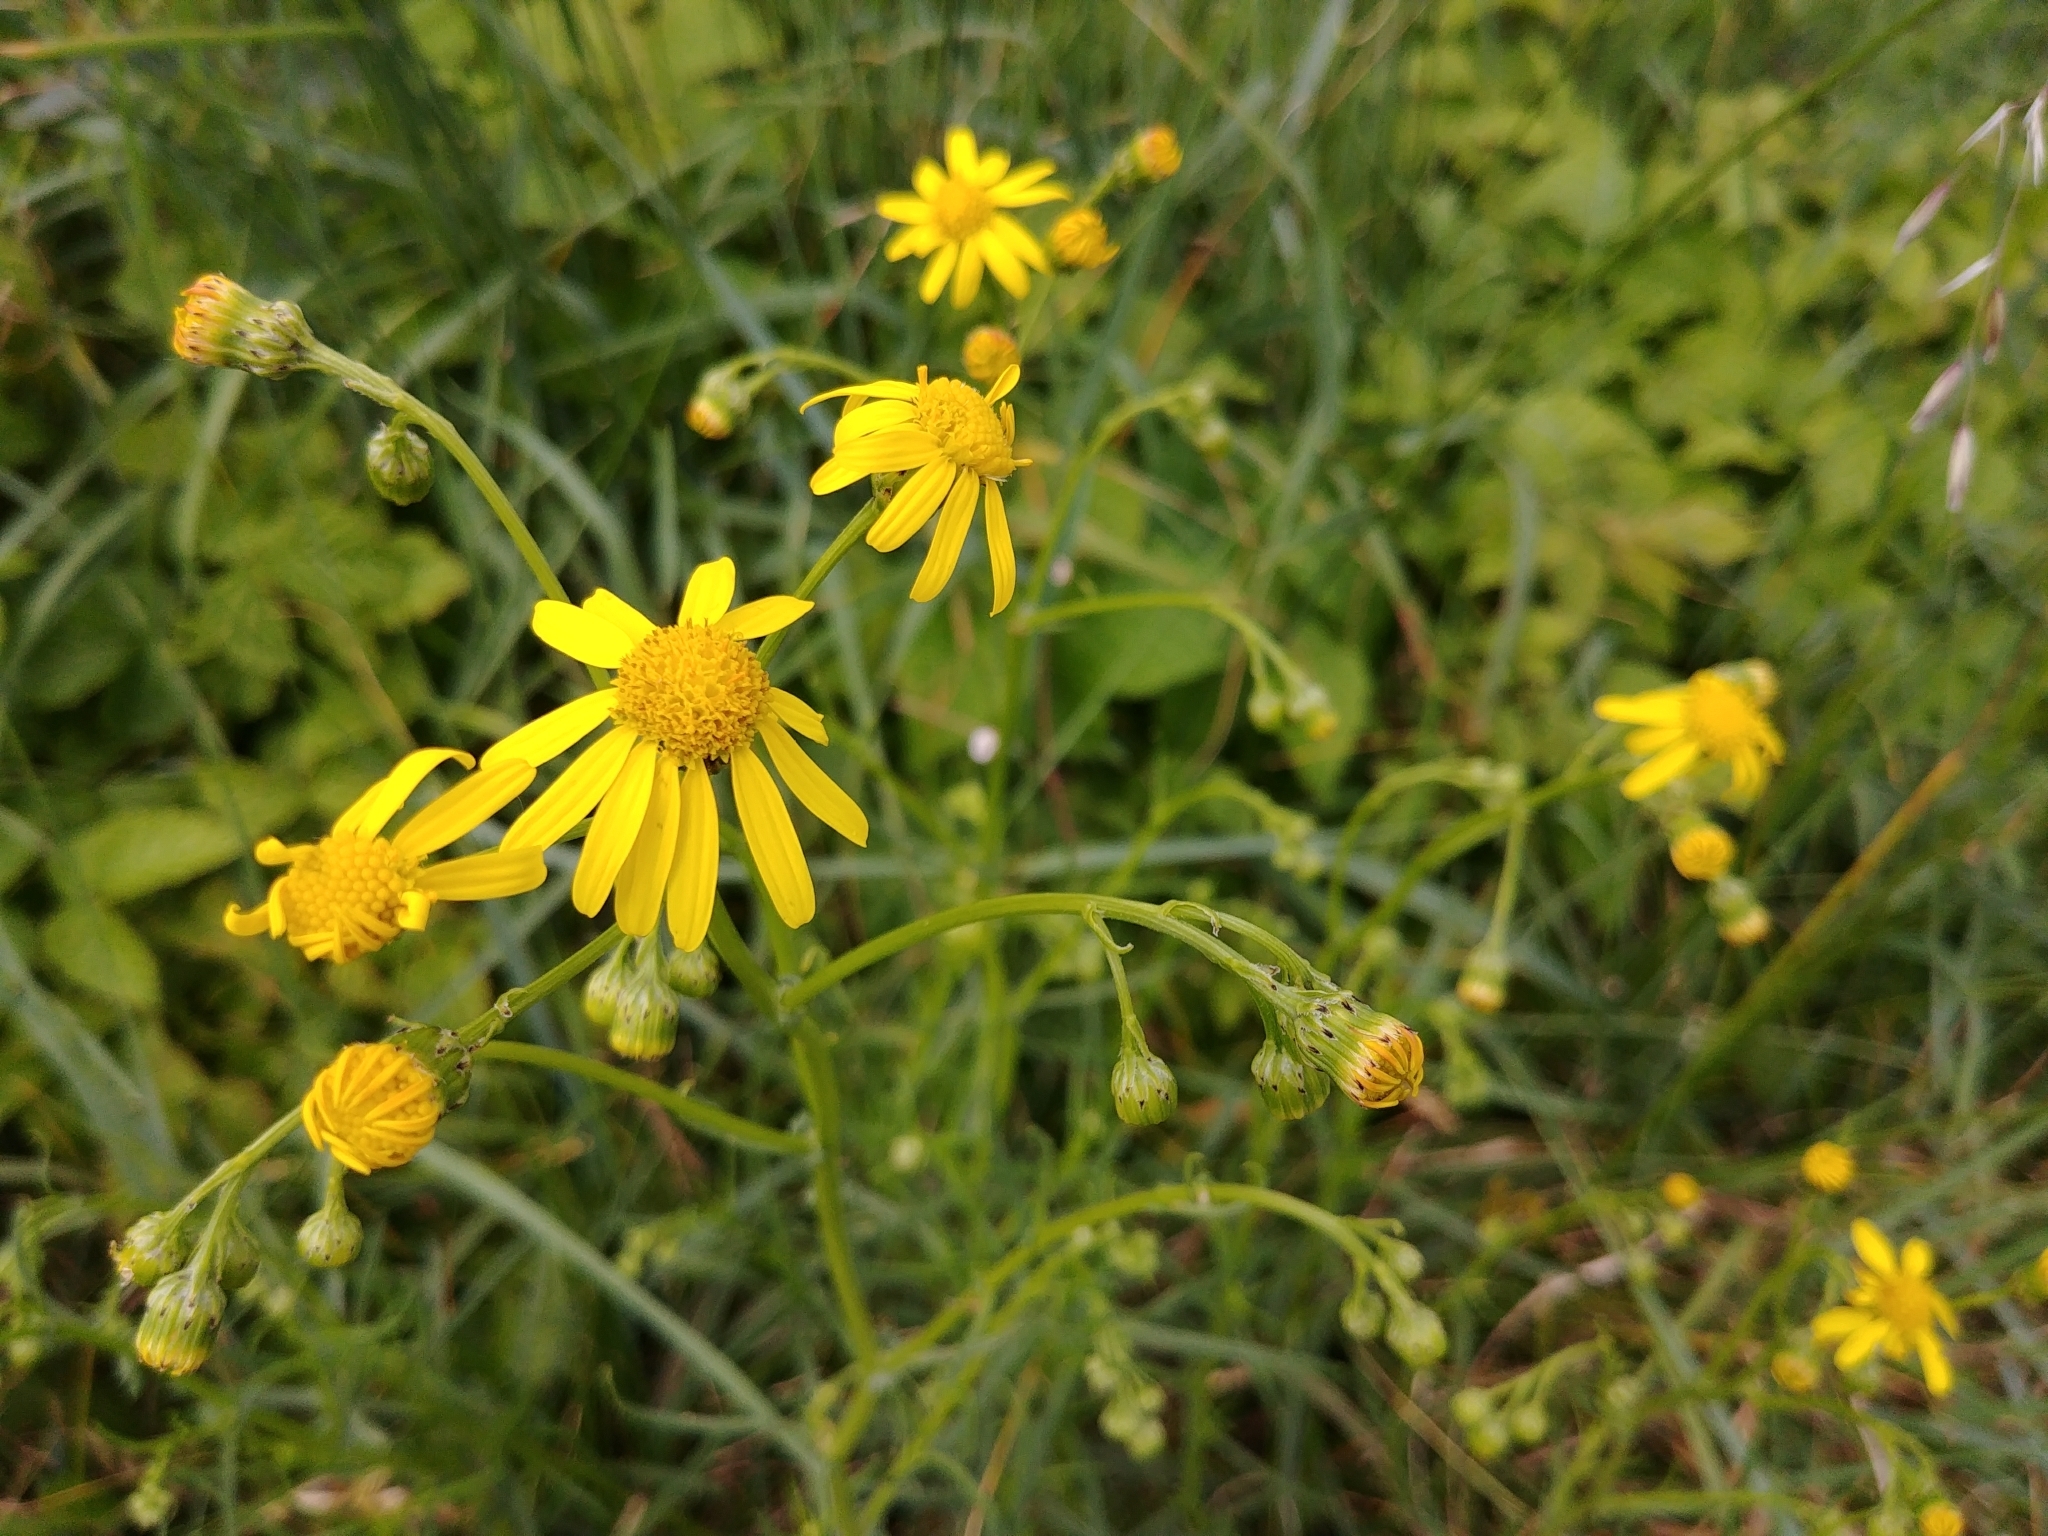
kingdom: Plantae
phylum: Tracheophyta
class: Magnoliopsida
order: Asterales
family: Asteraceae
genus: Senecio
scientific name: Senecio inaequidens
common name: Narrow-leaved ragwort
